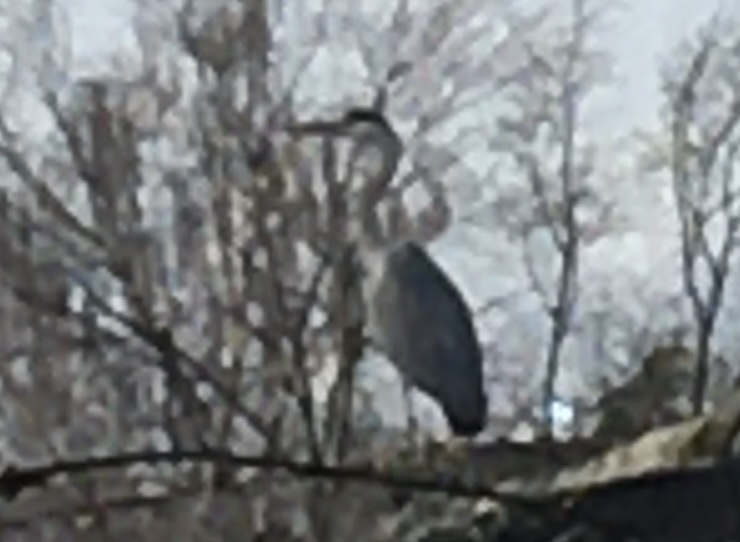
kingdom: Animalia
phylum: Chordata
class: Aves
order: Pelecaniformes
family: Ardeidae
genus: Ardea
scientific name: Ardea cinerea
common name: Grey heron
